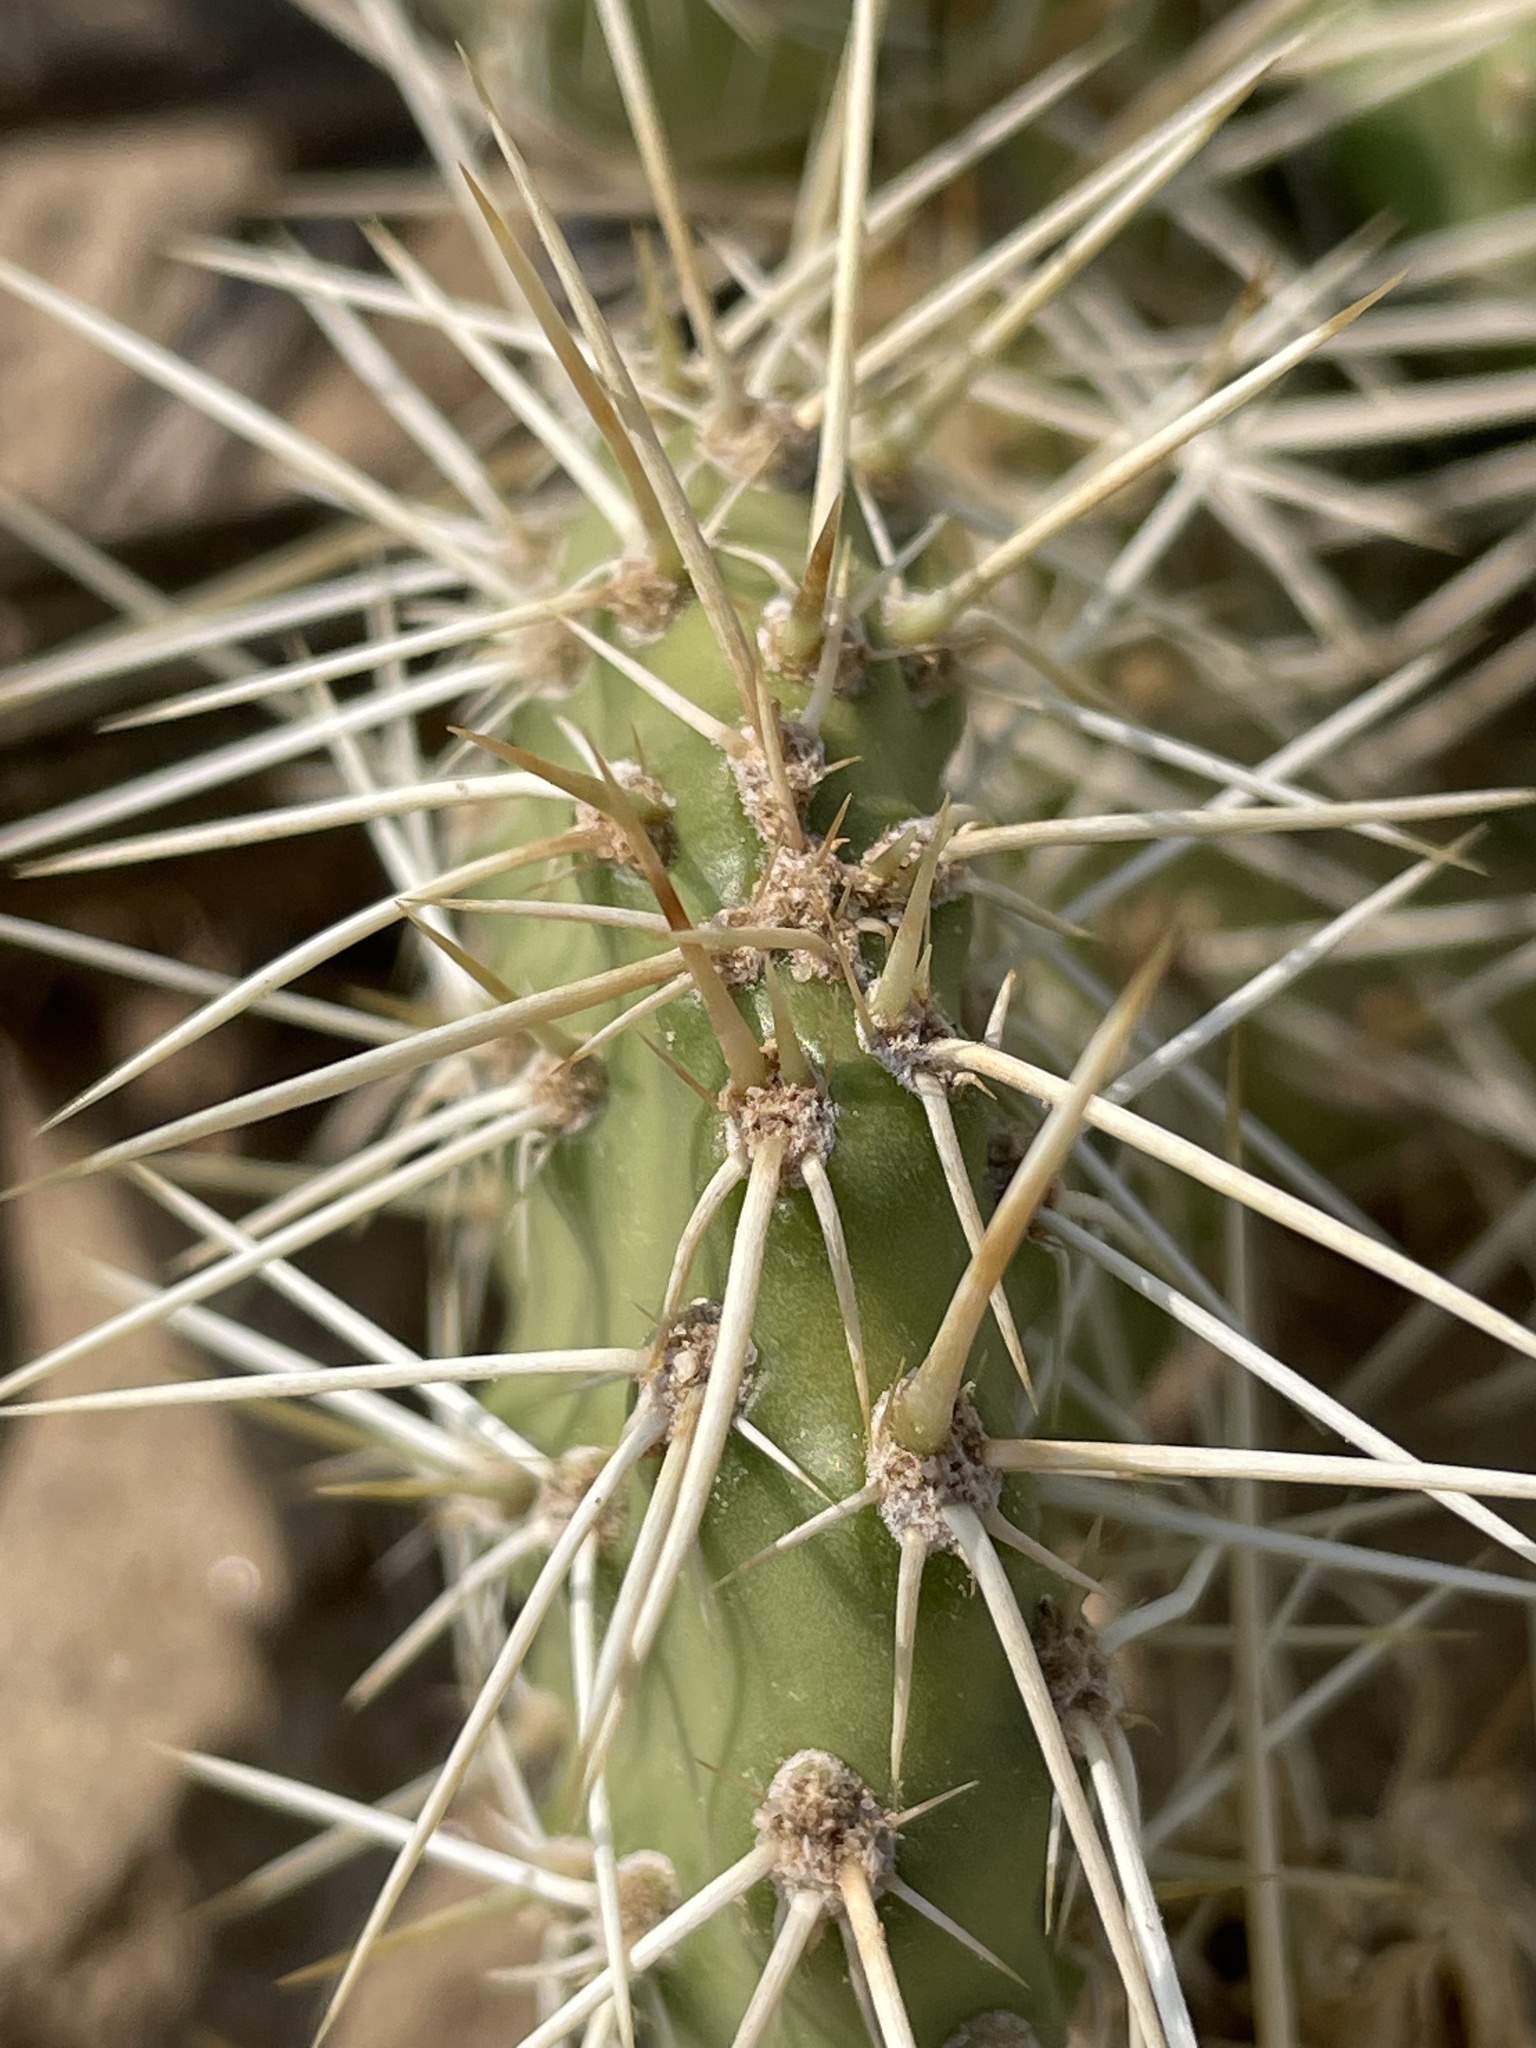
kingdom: Plantae
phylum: Tracheophyta
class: Magnoliopsida
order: Caryophyllales
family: Cactaceae
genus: Opuntia
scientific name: Opuntia polyacantha
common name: Plains prickly-pear
